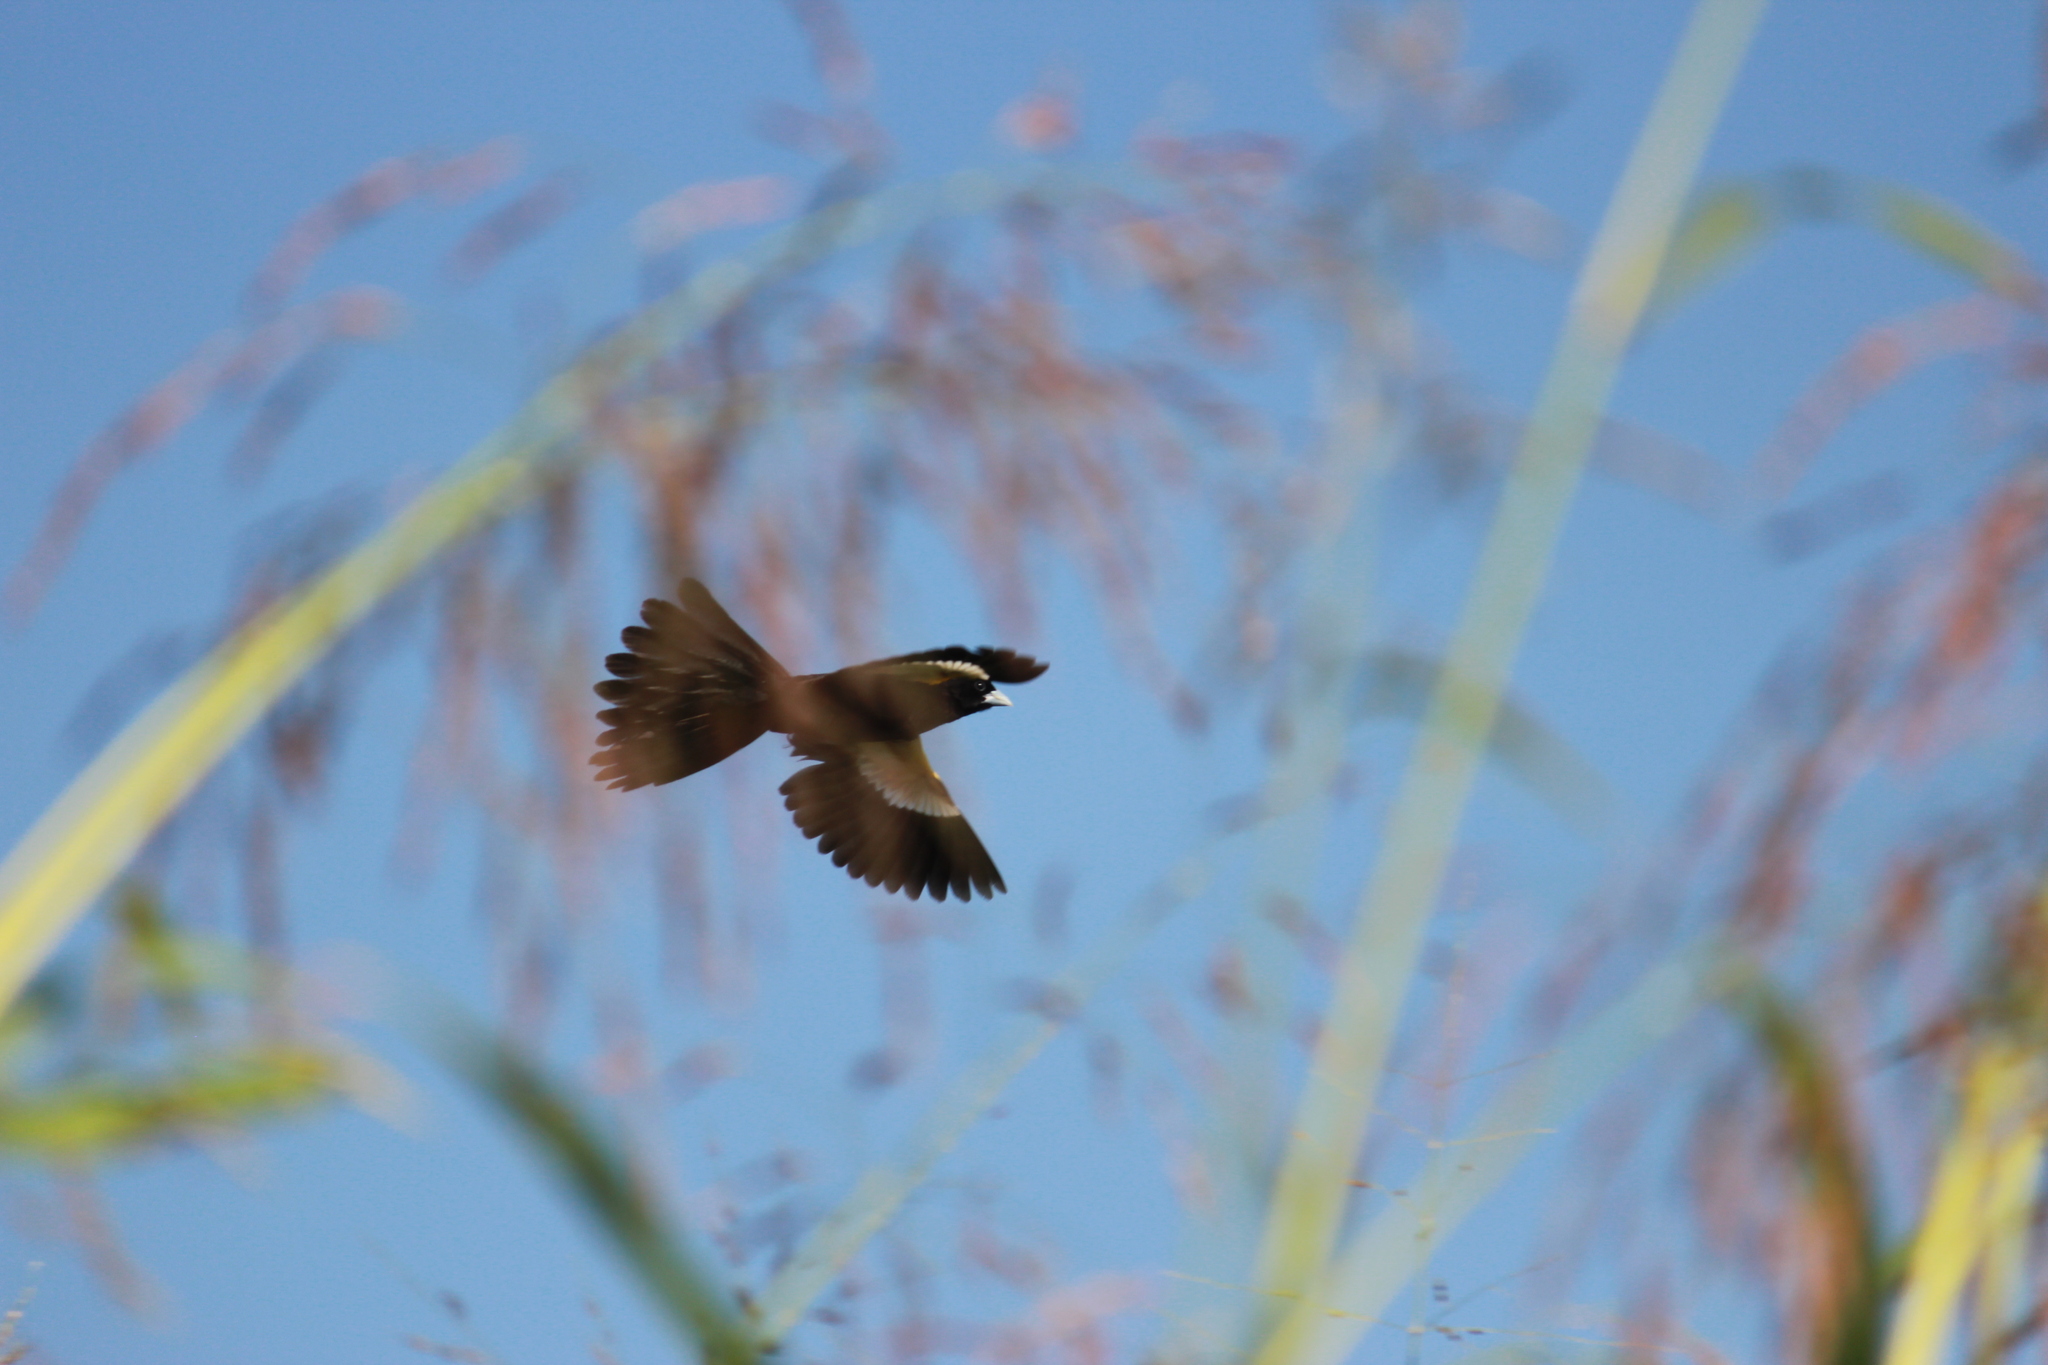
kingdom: Animalia
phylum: Chordata
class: Aves
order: Passeriformes
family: Ploceidae
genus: Euplectes
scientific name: Euplectes albonotatus
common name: White-winged widowbird
